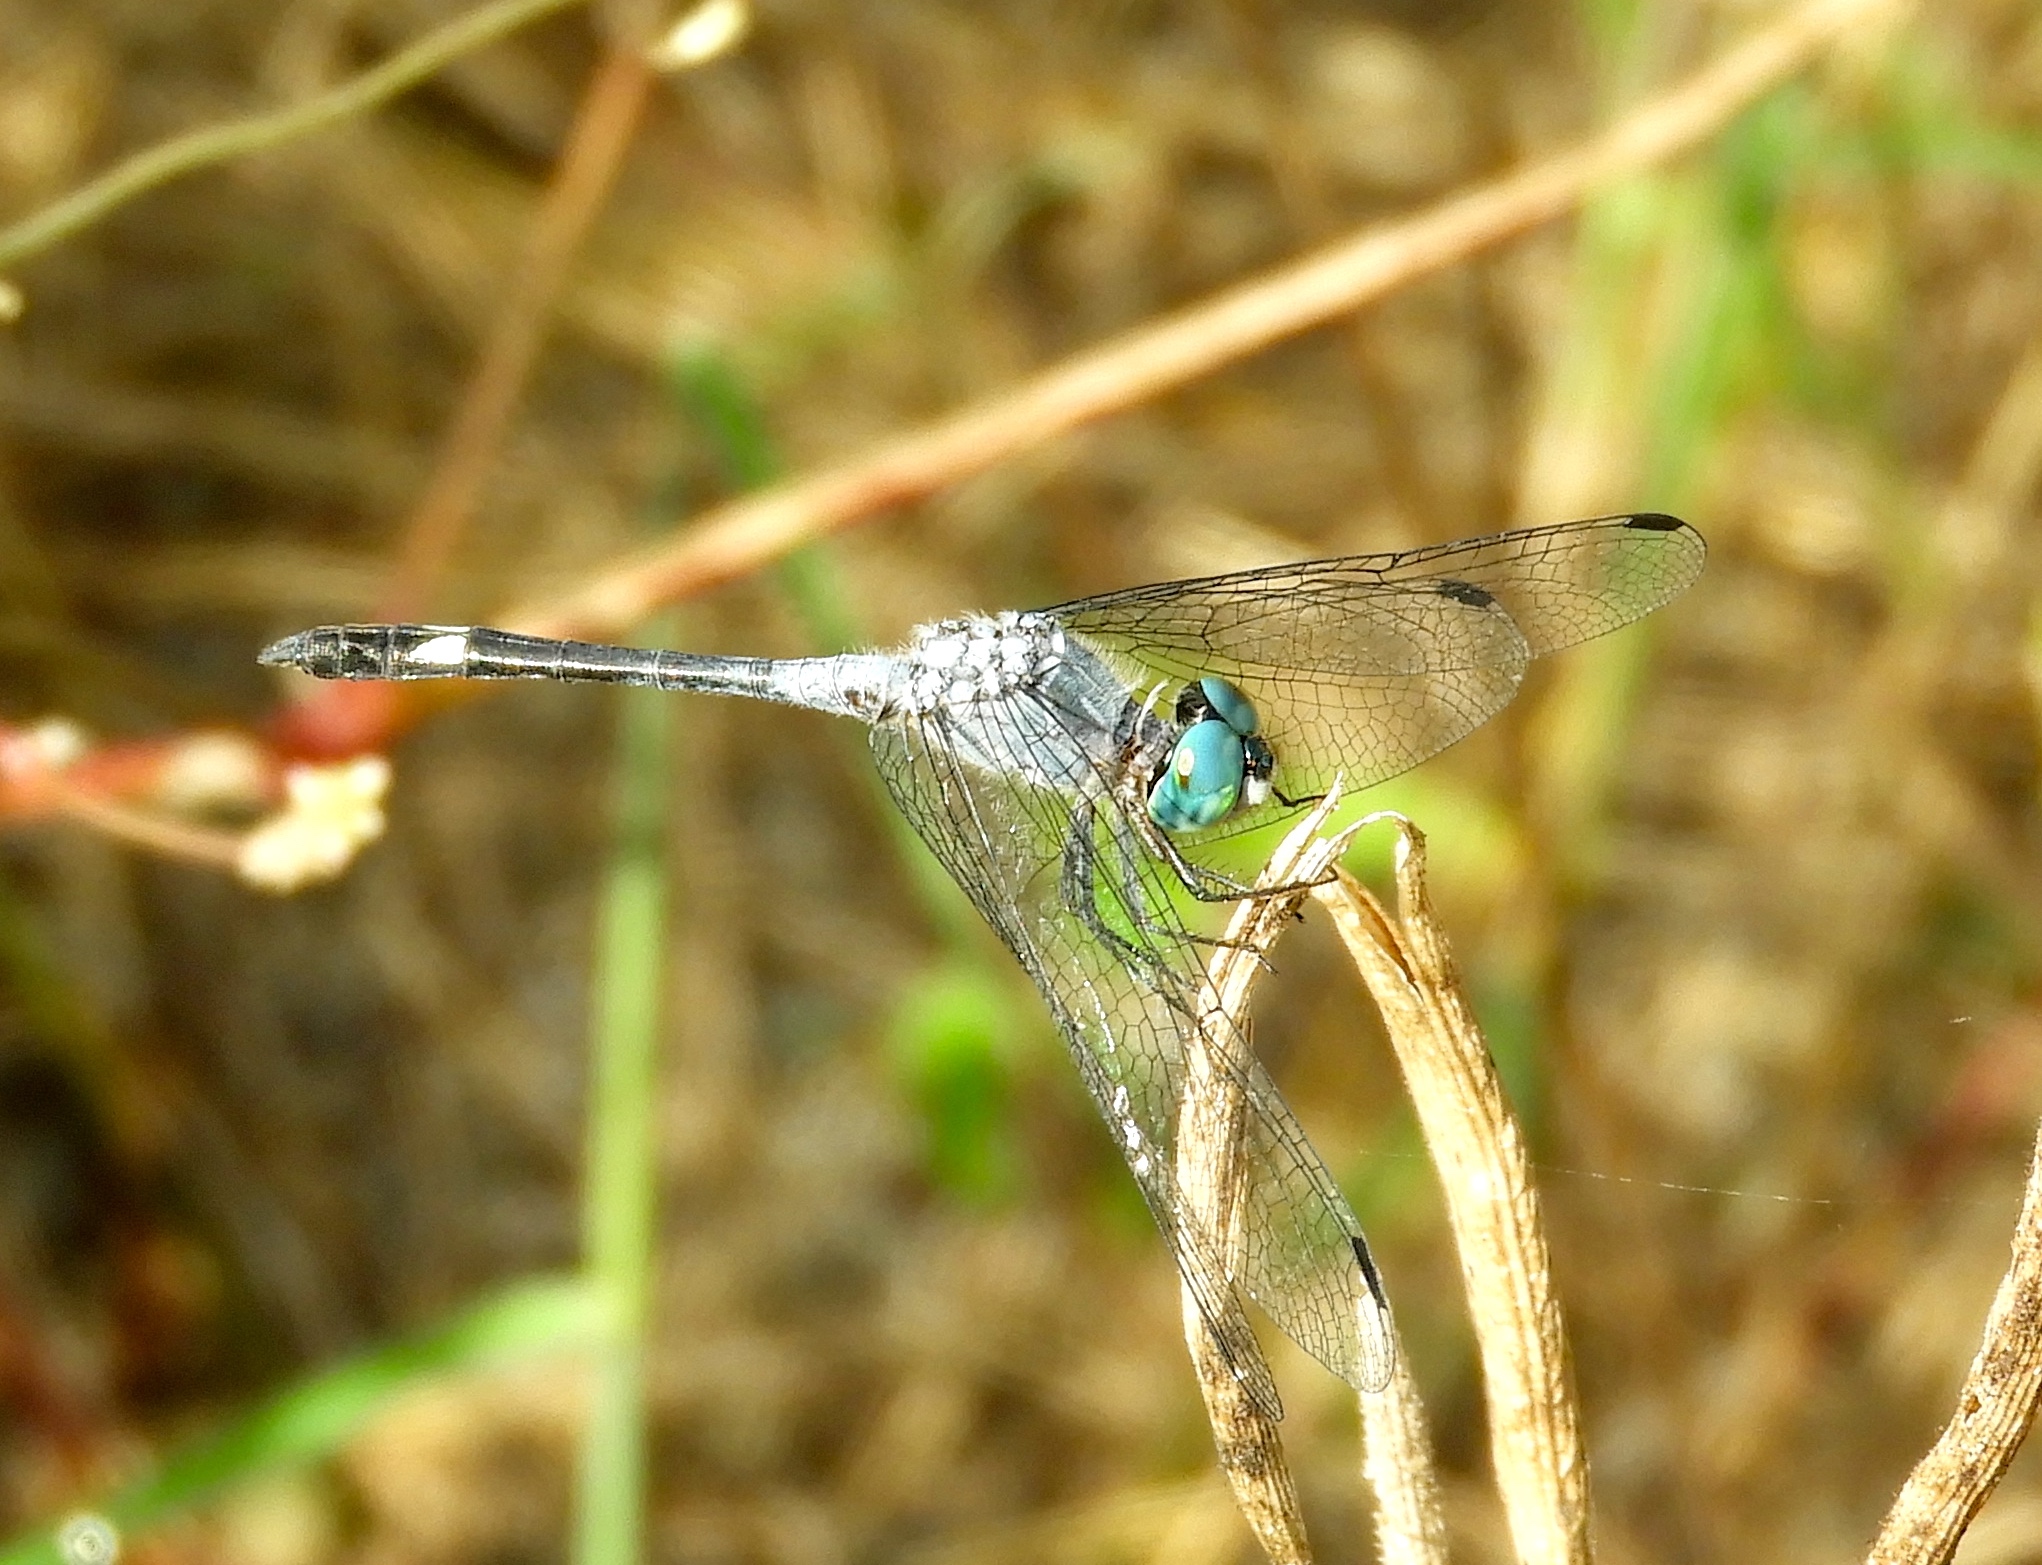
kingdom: Animalia
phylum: Arthropoda
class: Insecta
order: Odonata
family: Libellulidae
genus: Micrathyria
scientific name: Micrathyria aequalis
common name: Spot-tailed dasher
